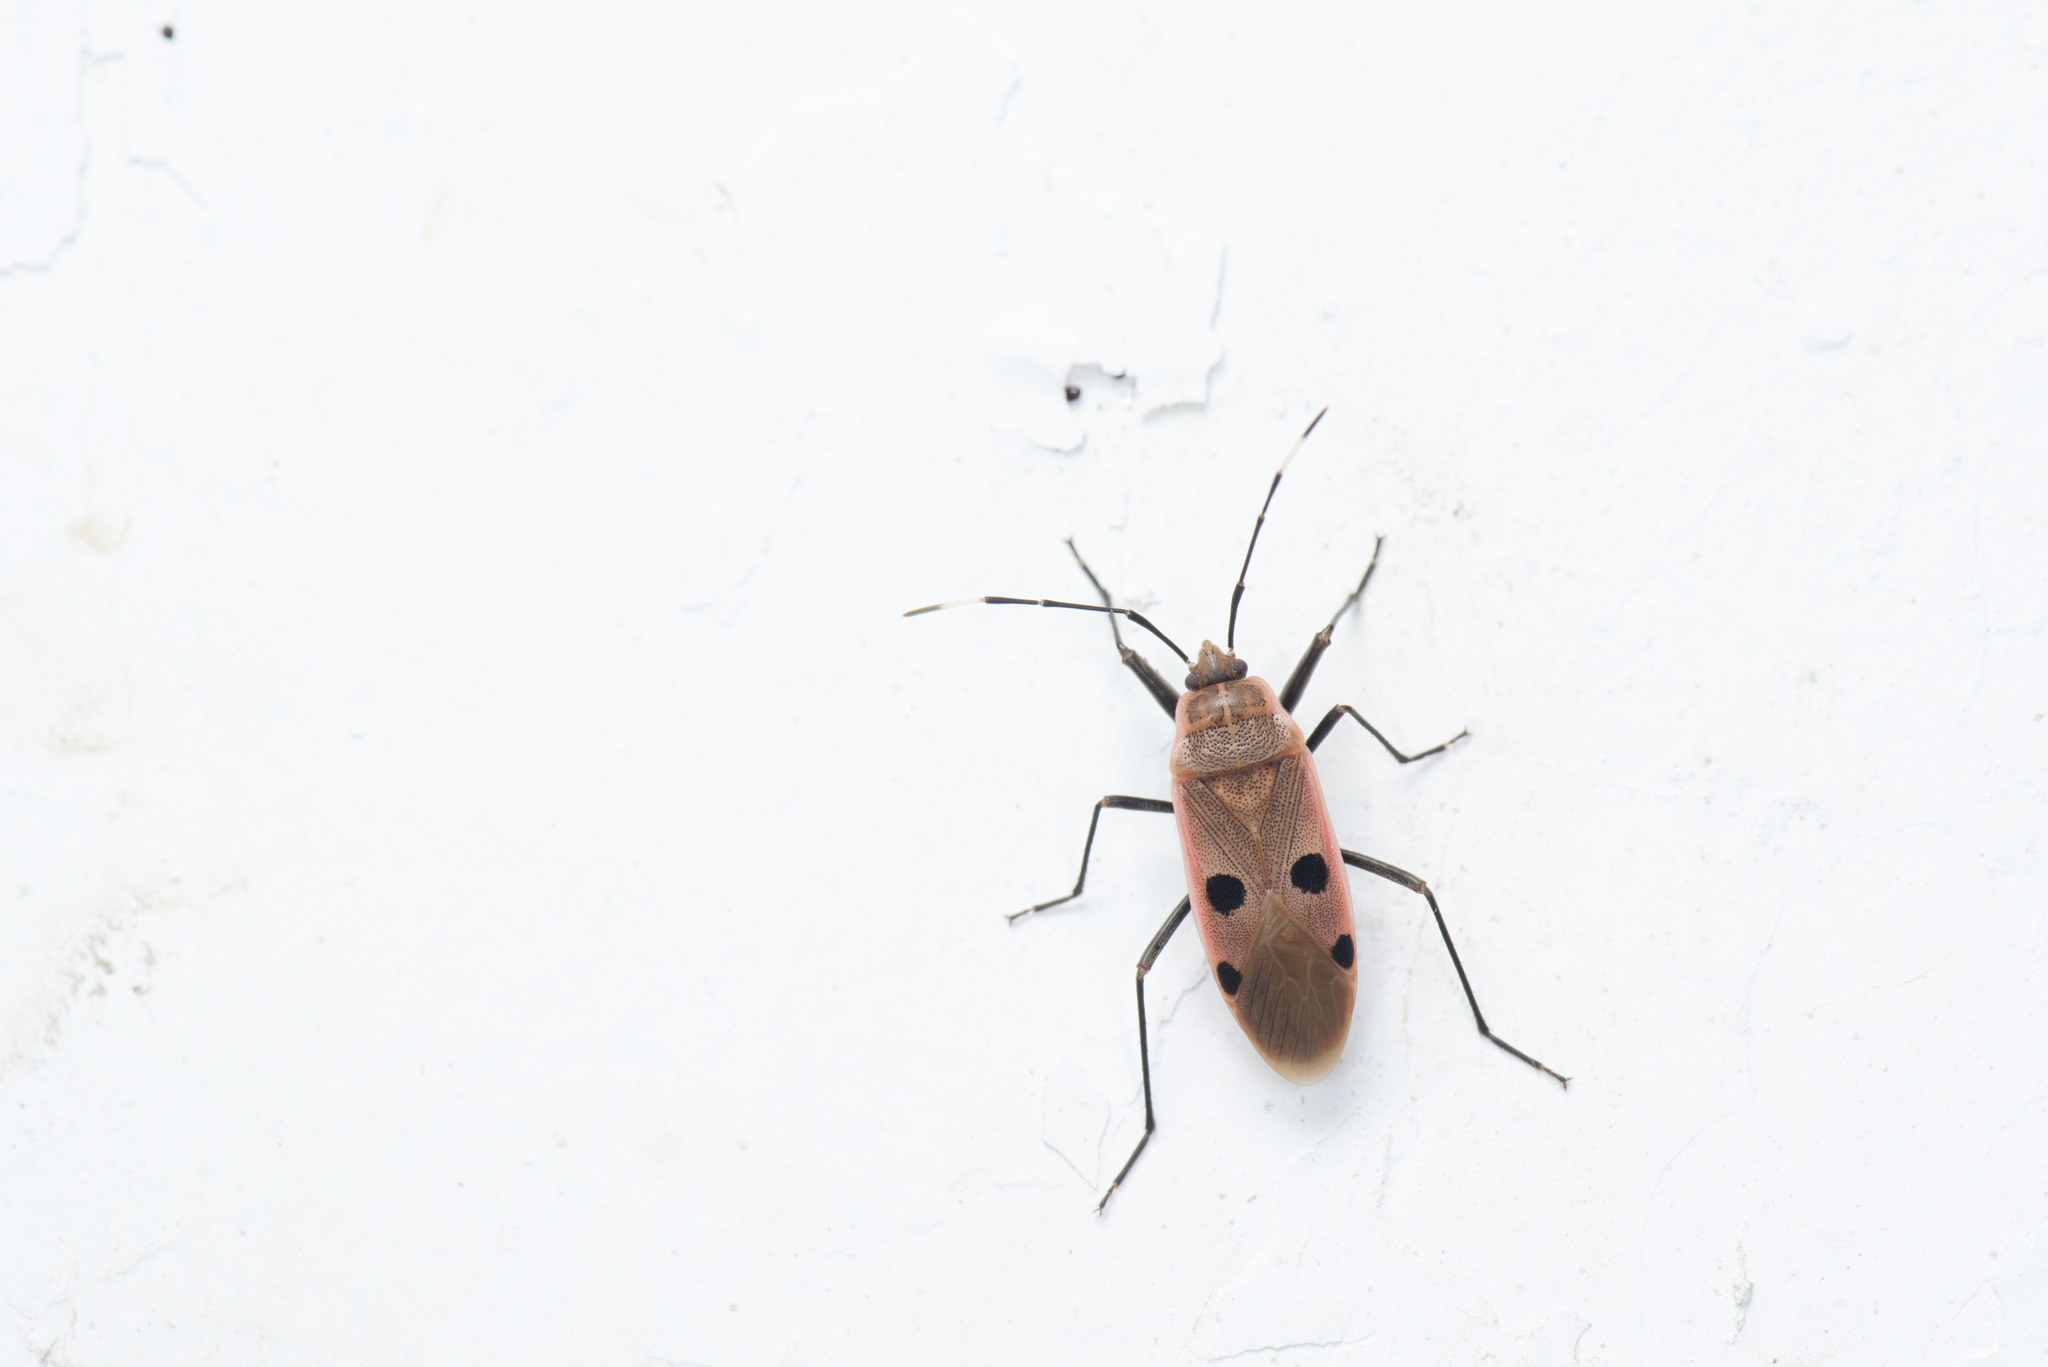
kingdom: Animalia
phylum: Arthropoda
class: Insecta
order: Hemiptera
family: Largidae
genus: Physopelta
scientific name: Physopelta quadriguttata
